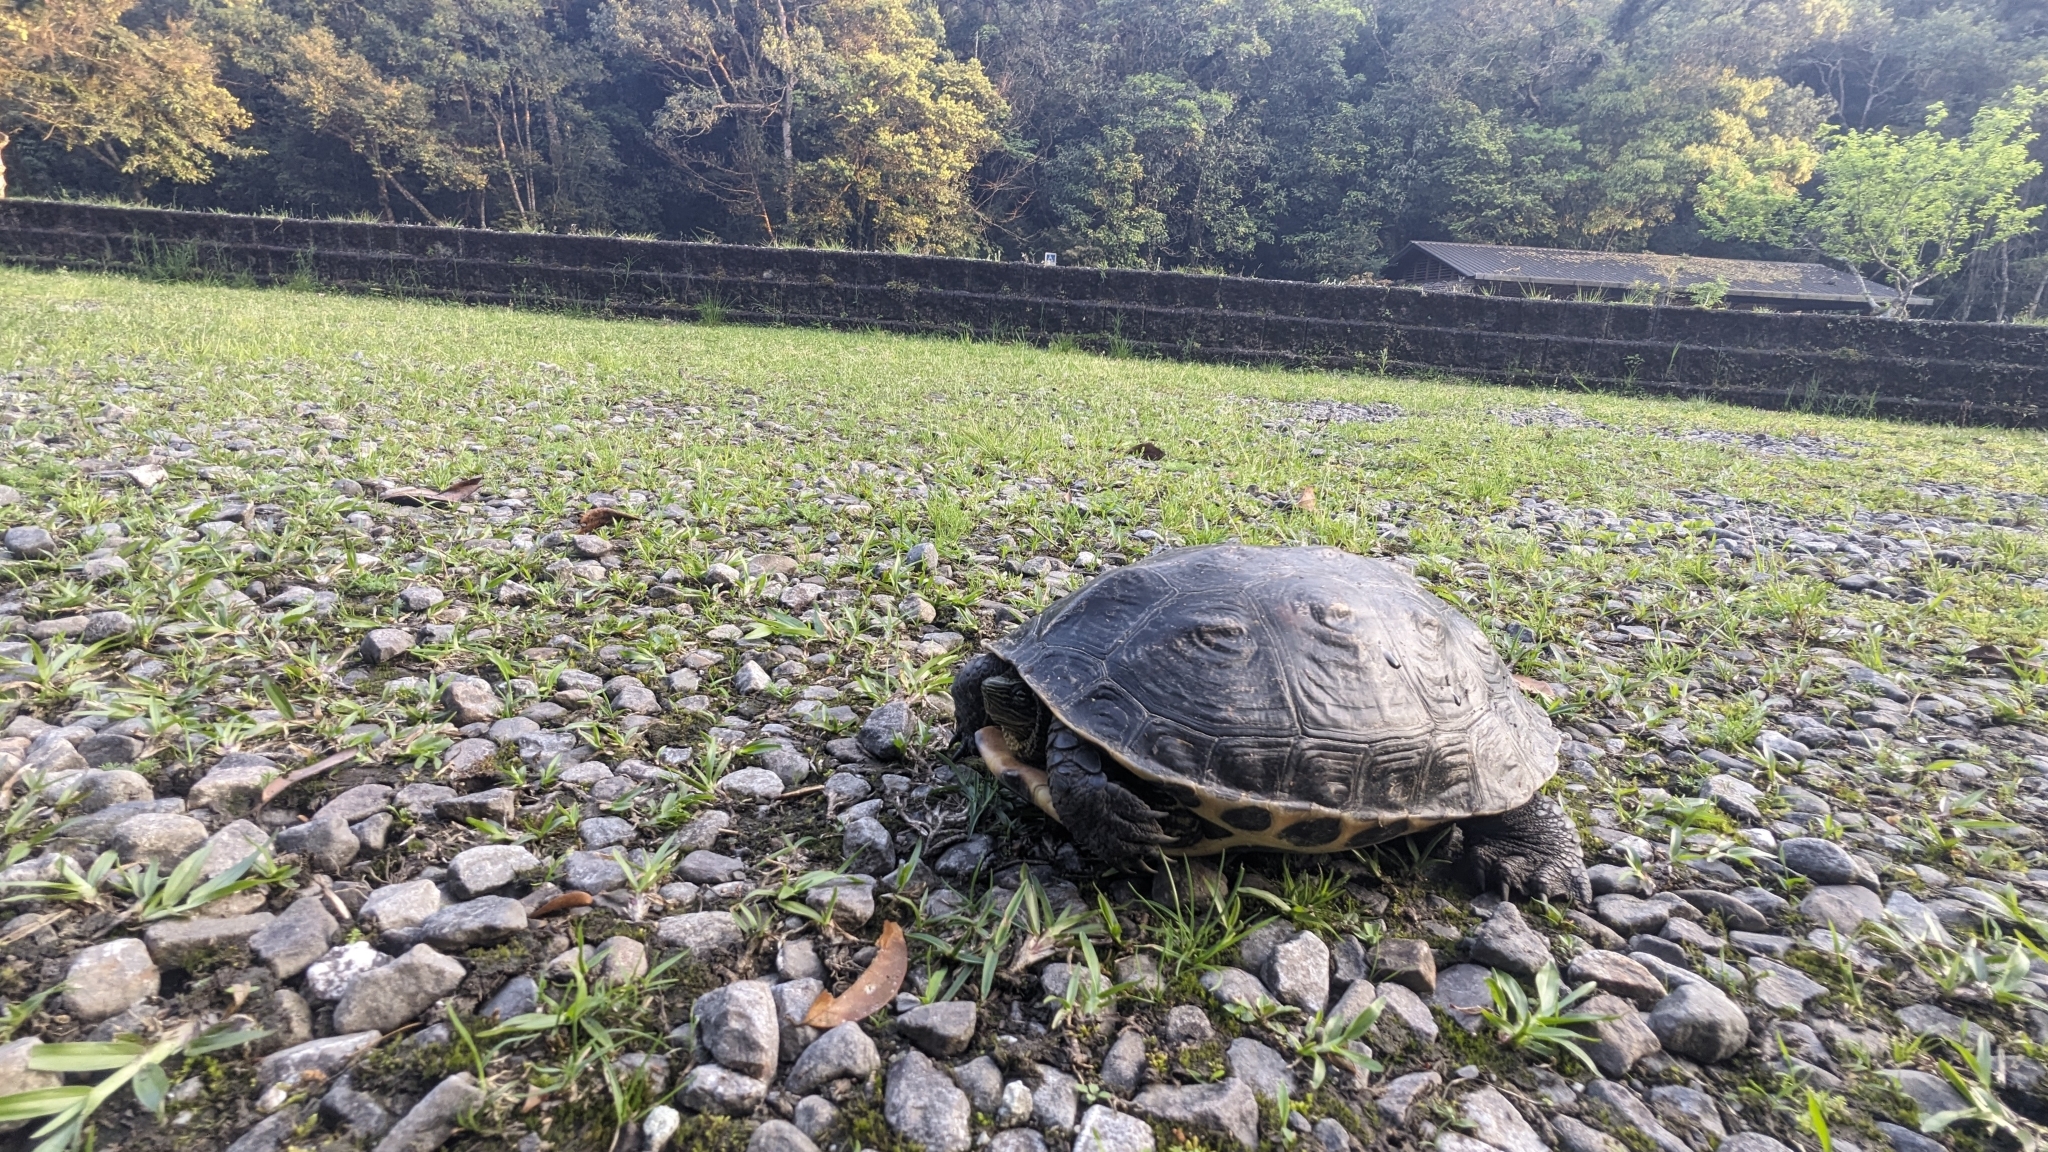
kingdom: Animalia
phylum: Chordata
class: Testudines
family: Geoemydidae
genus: Mauremys
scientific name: Mauremys sinensis
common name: Chinese stripe-necked turtle
